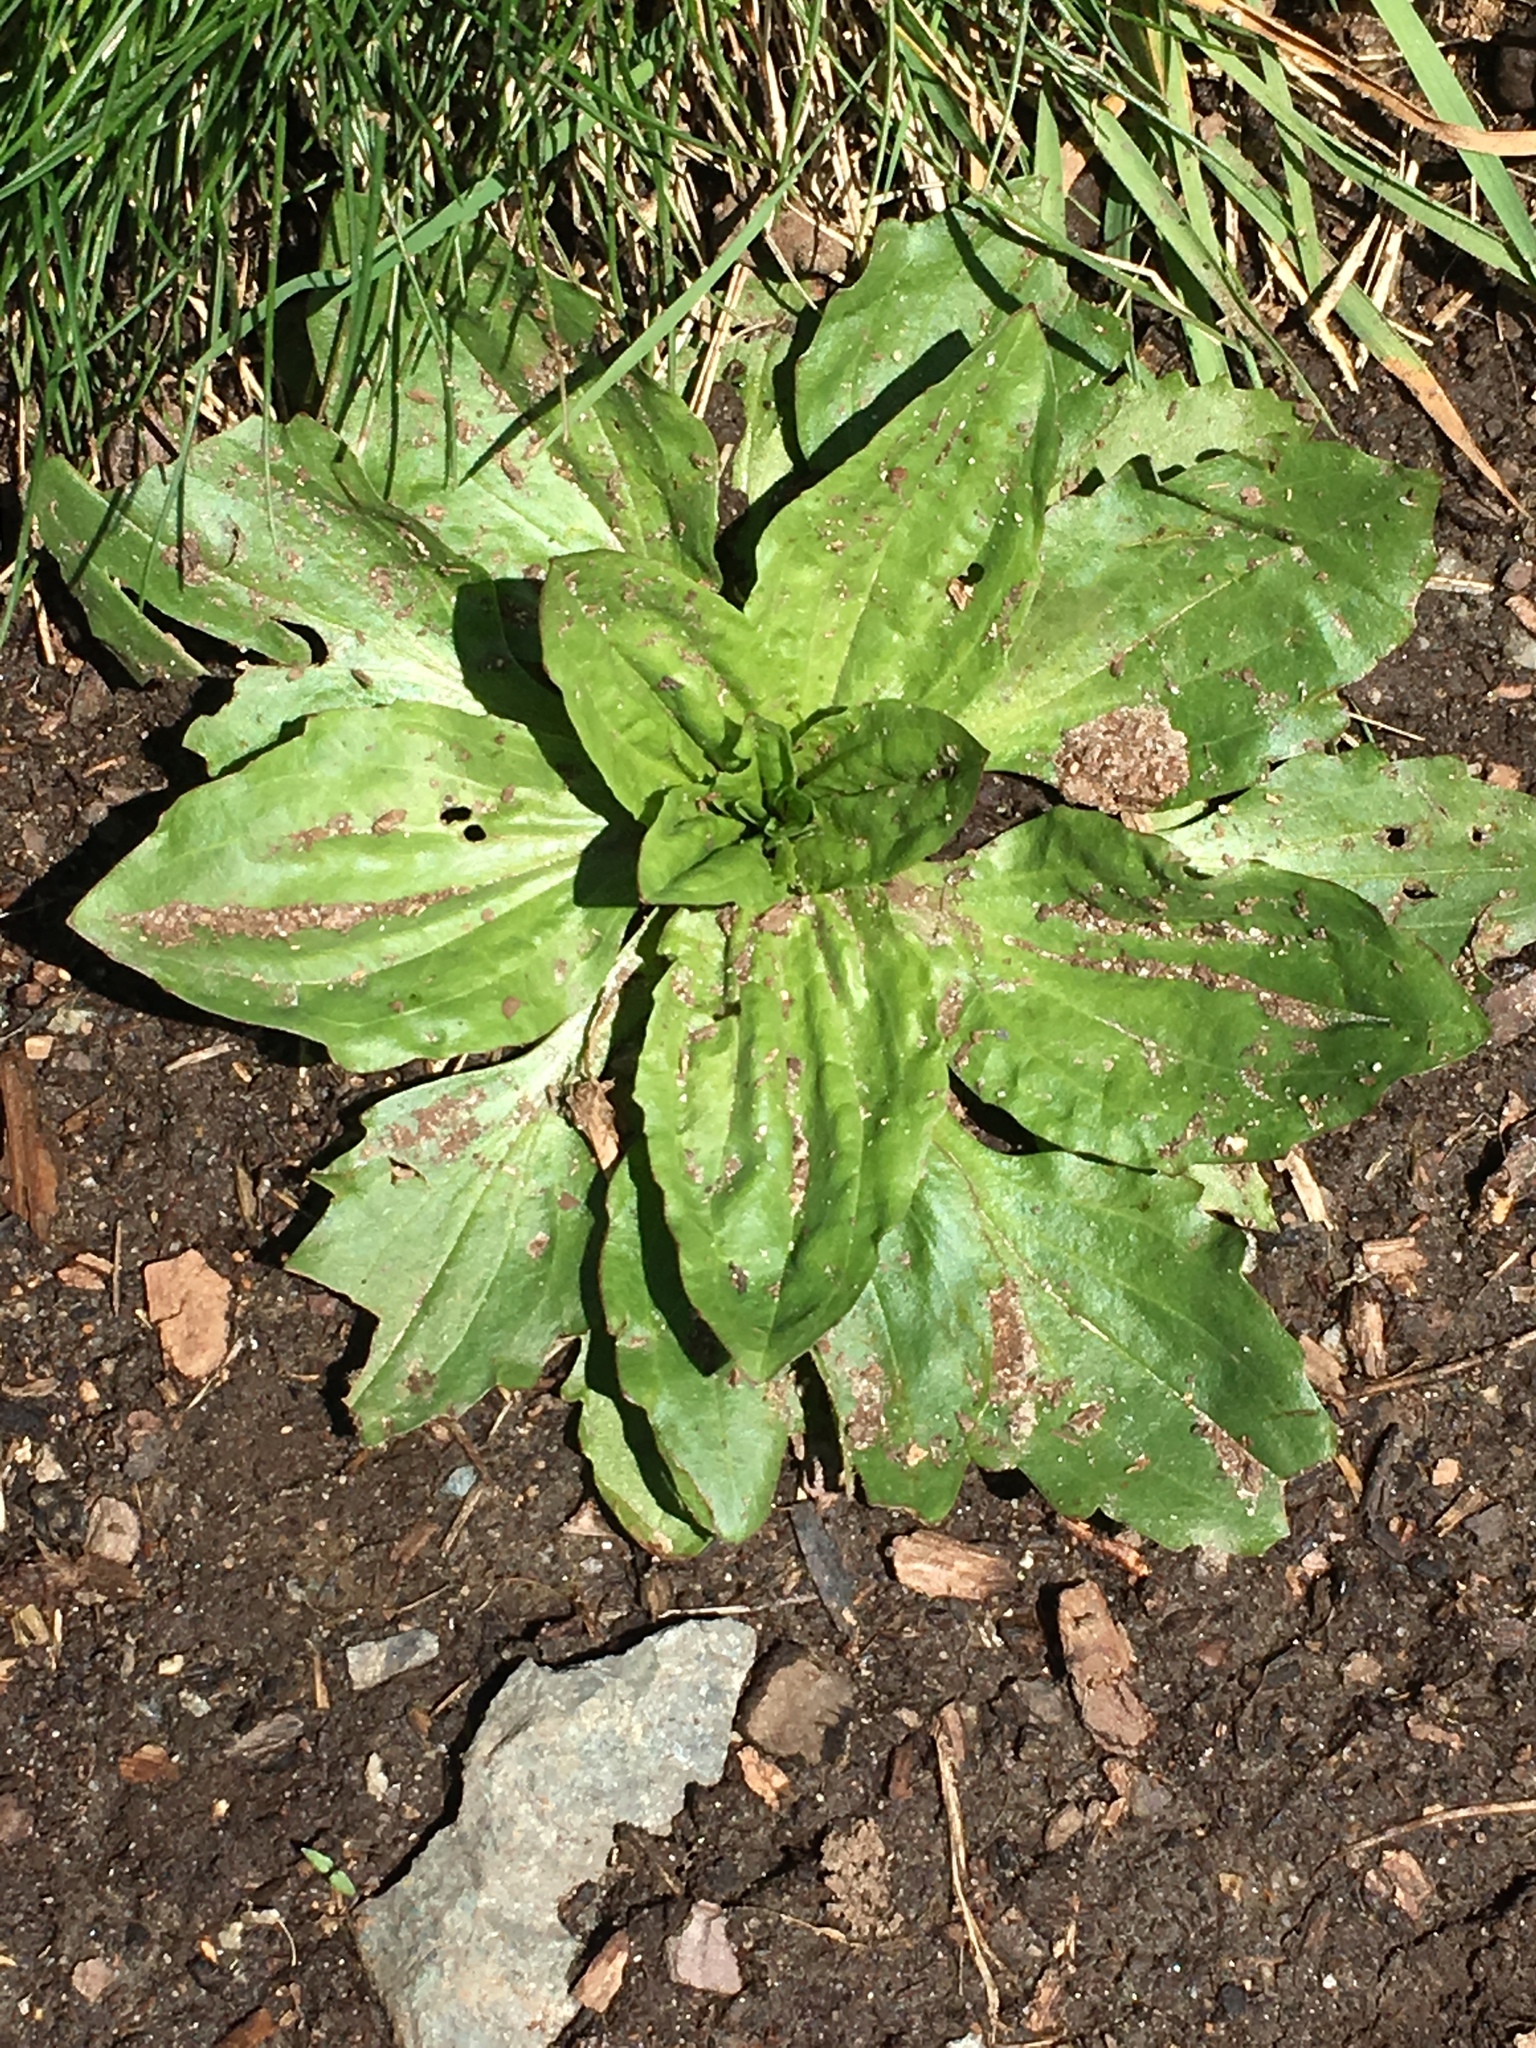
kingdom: Plantae
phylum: Tracheophyta
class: Magnoliopsida
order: Lamiales
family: Plantaginaceae
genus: Plantago
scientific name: Plantago major
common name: Common plantain
